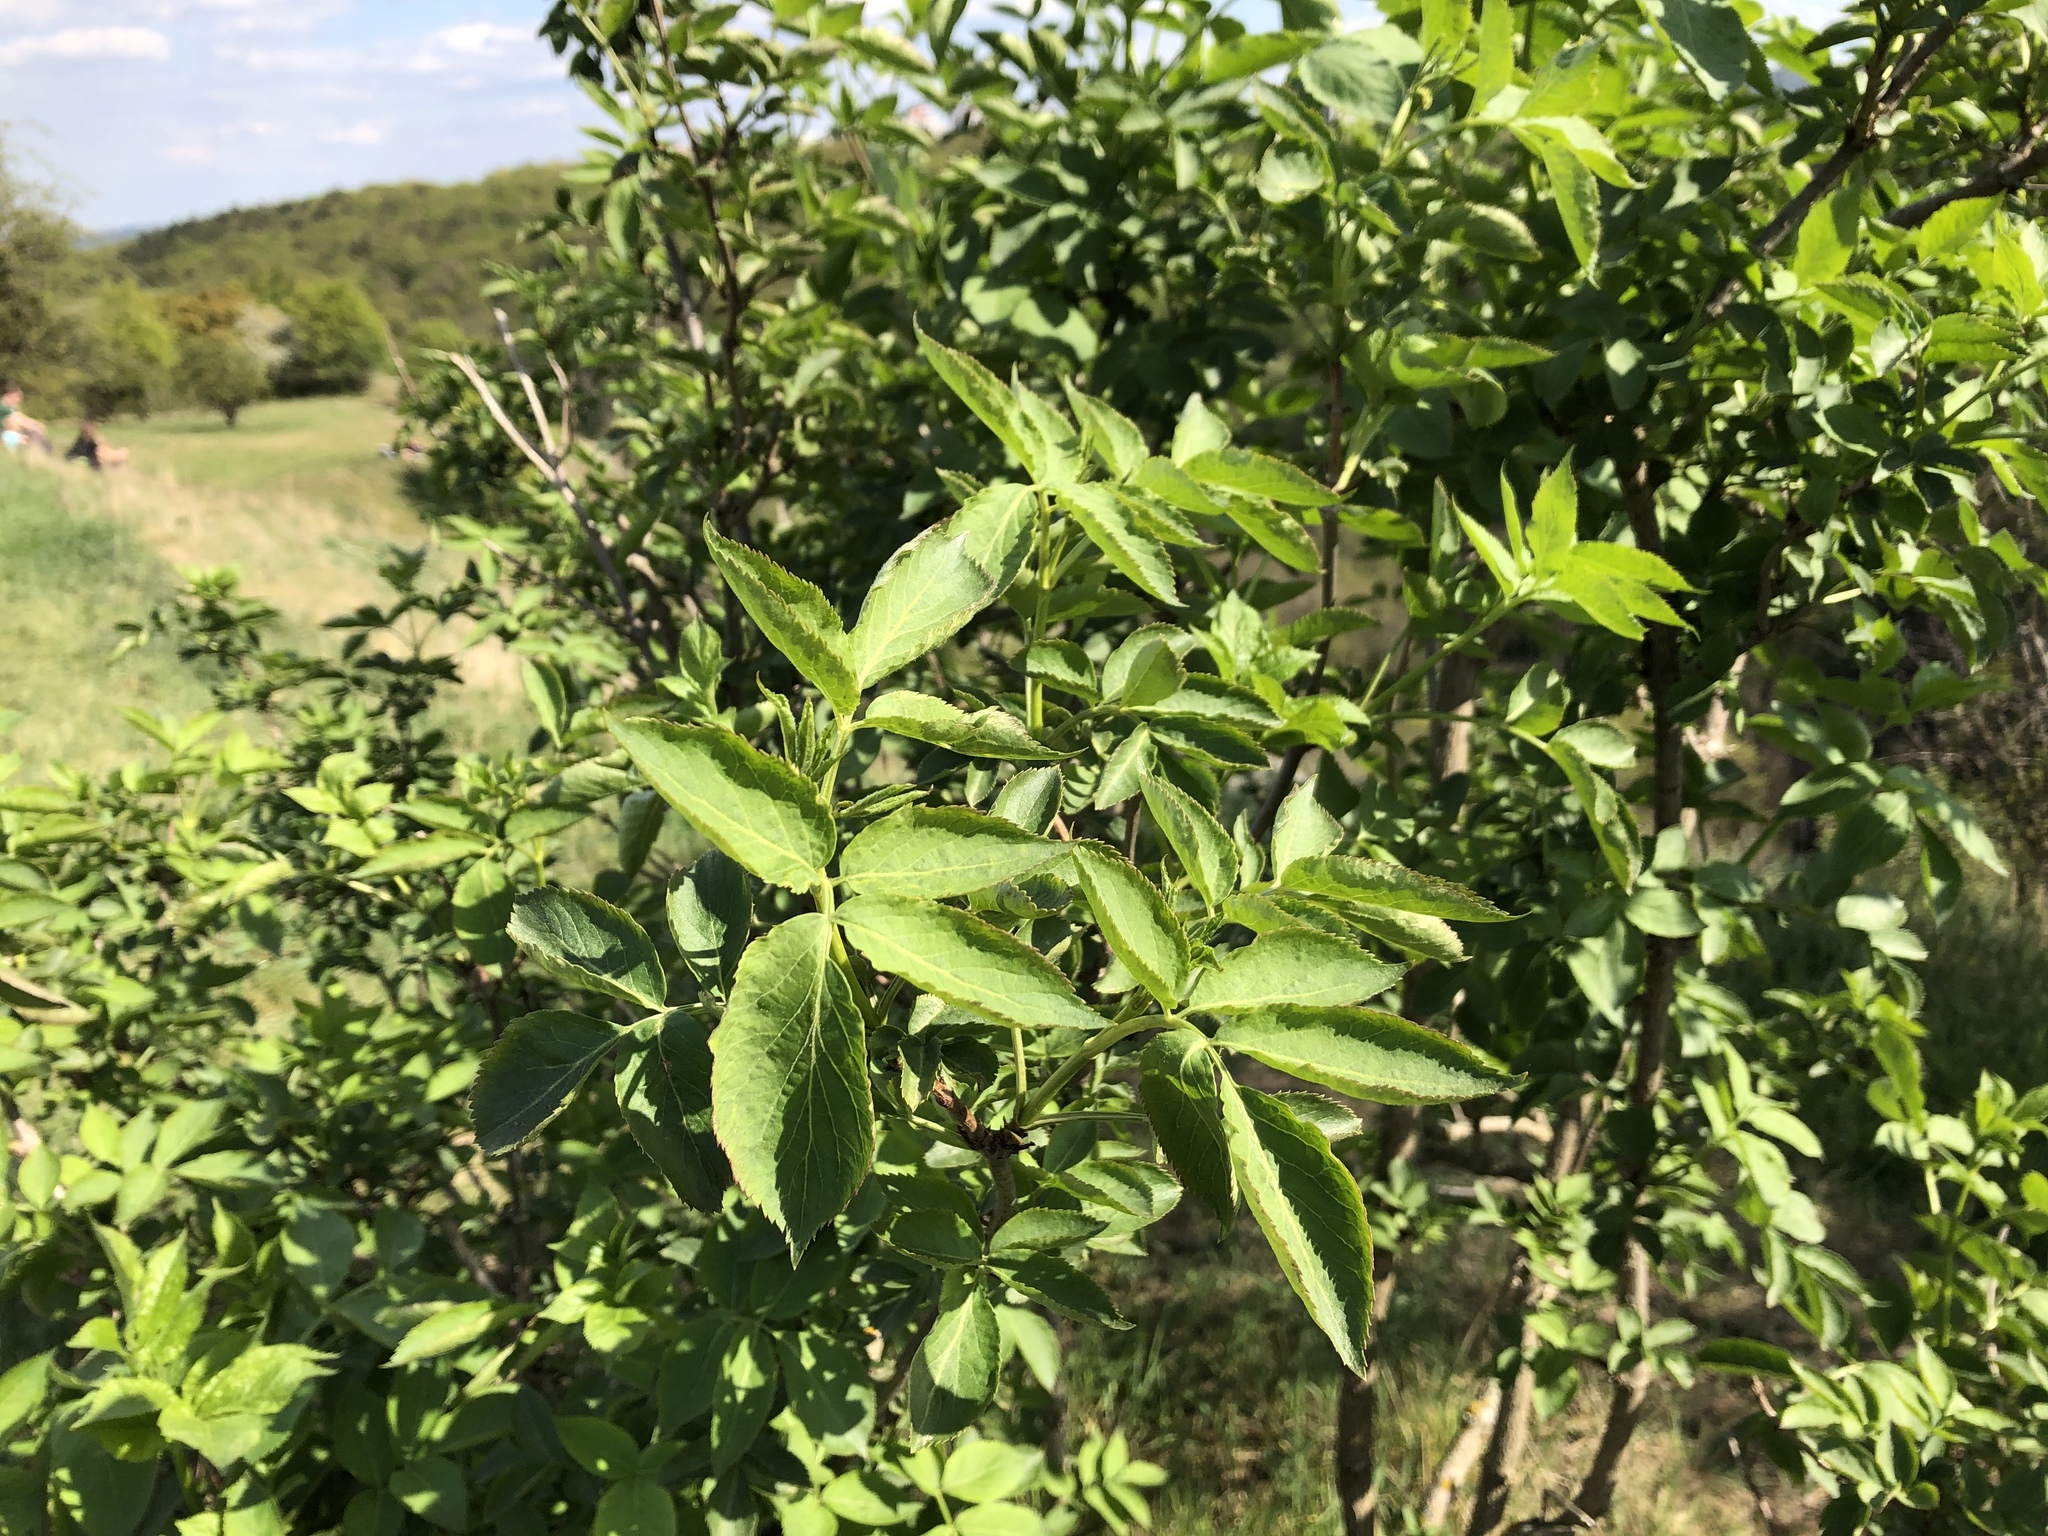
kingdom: Plantae
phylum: Tracheophyta
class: Magnoliopsida
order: Dipsacales
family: Viburnaceae
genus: Sambucus
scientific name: Sambucus nigra
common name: Elder
